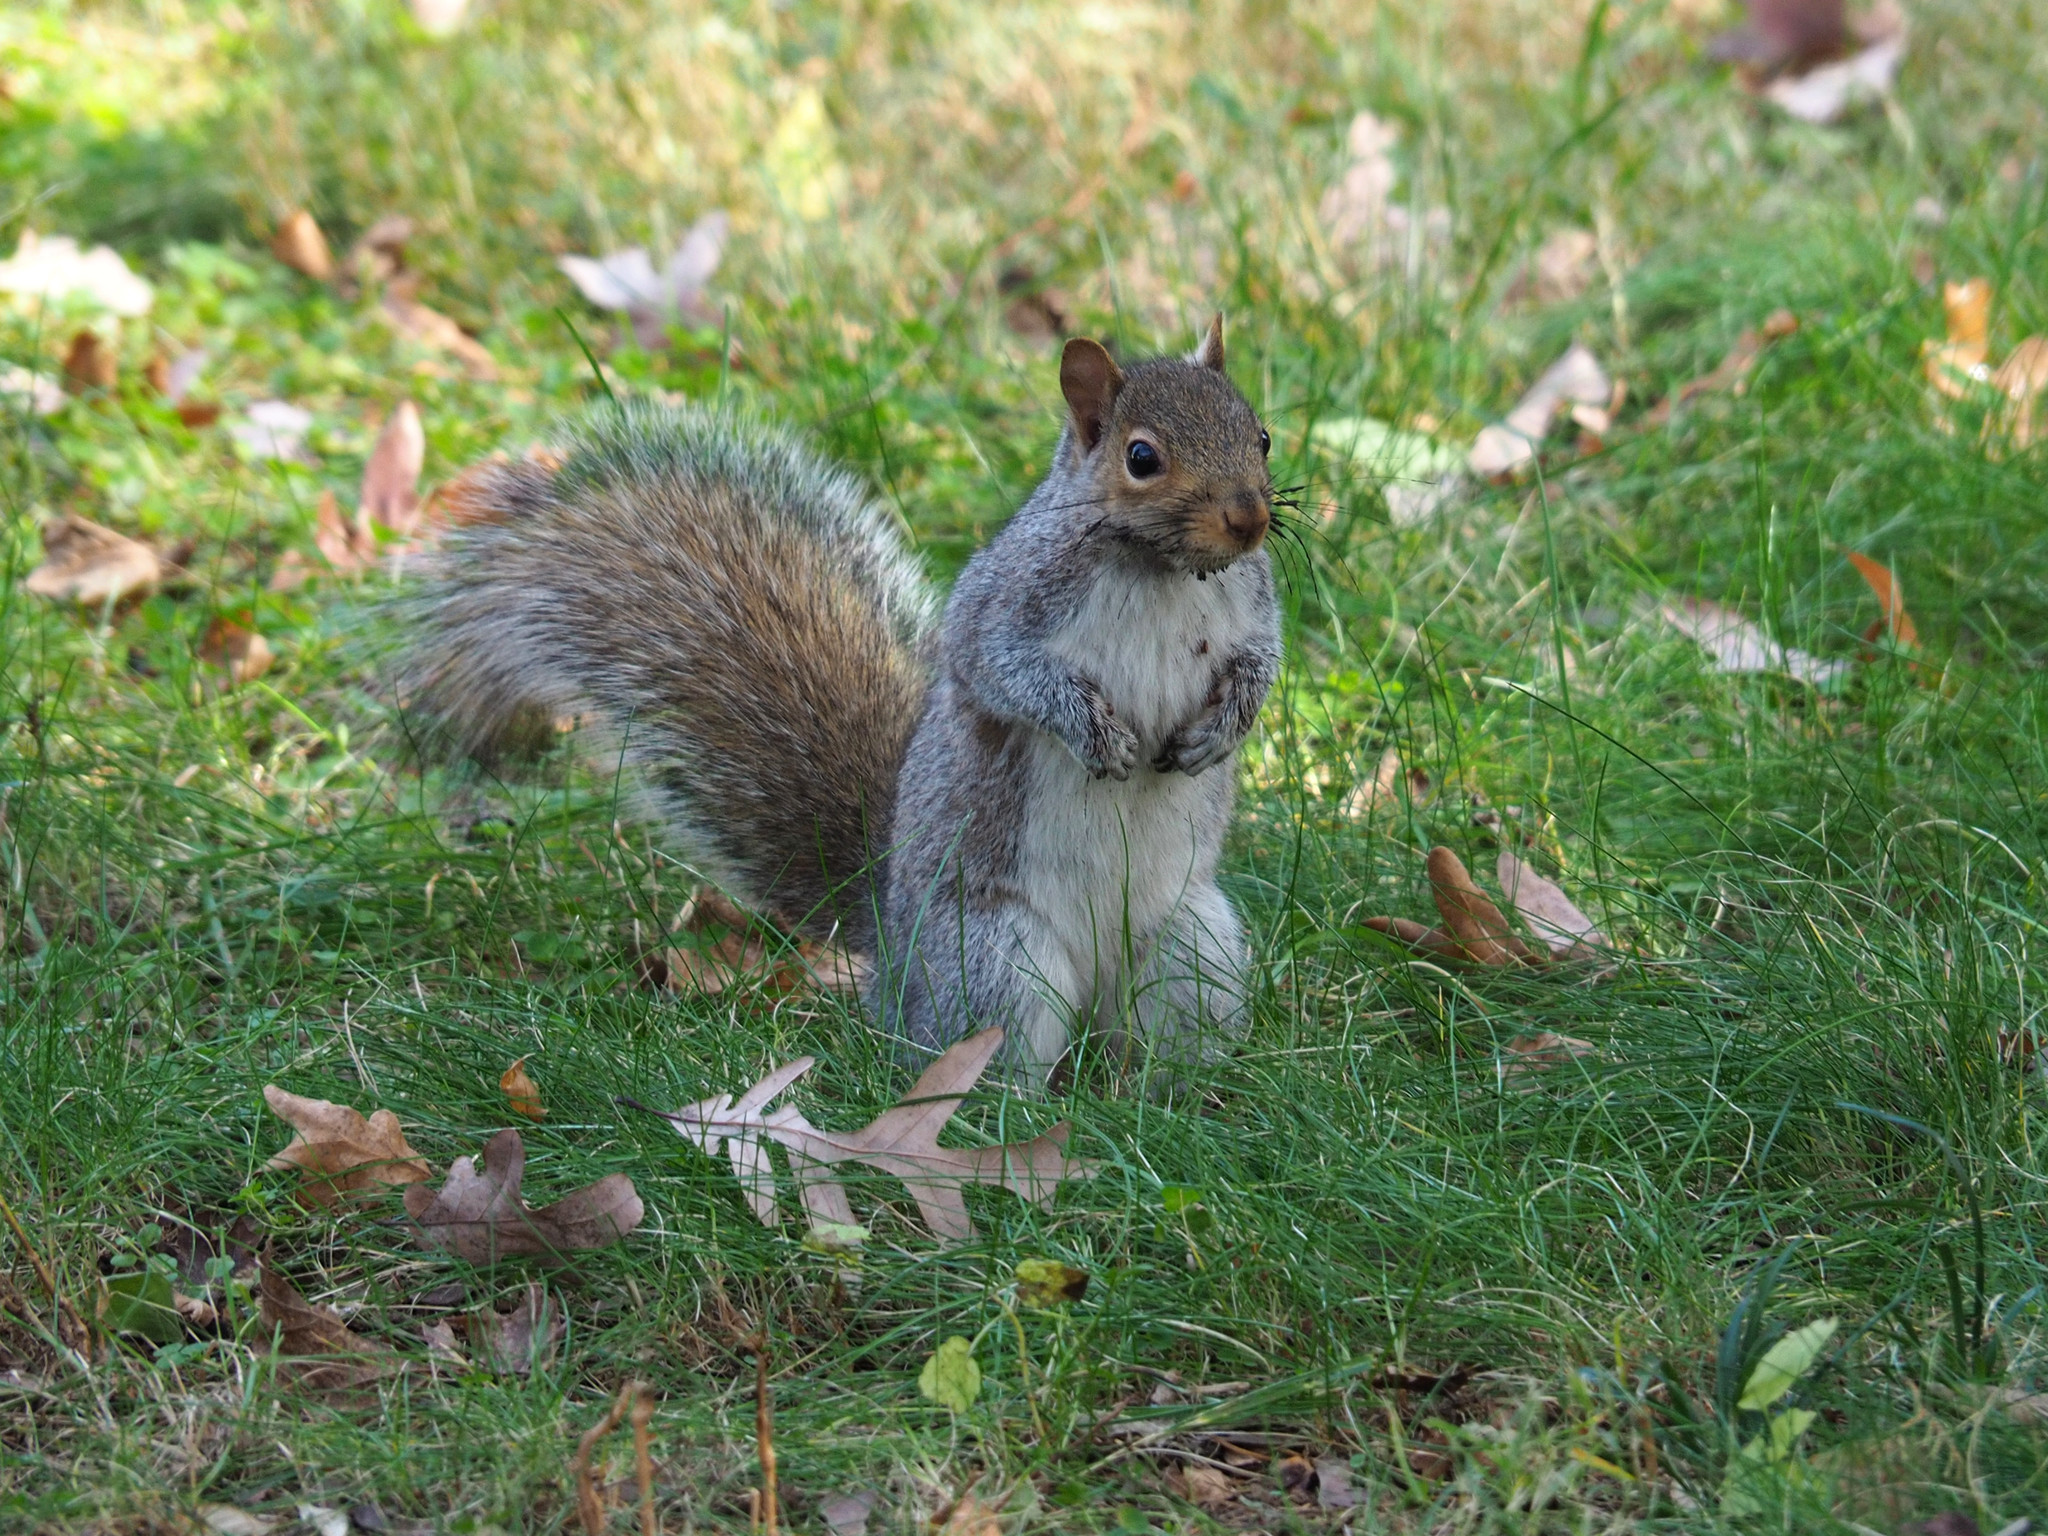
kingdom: Animalia
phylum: Chordata
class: Mammalia
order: Rodentia
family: Sciuridae
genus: Sciurus
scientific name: Sciurus carolinensis
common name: Eastern gray squirrel
